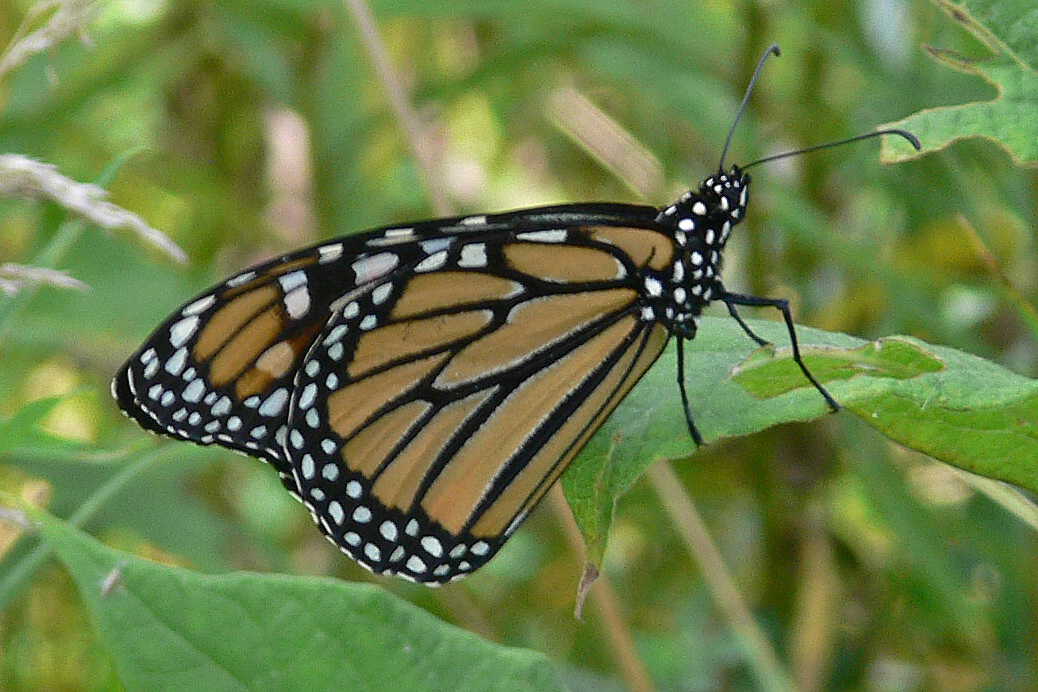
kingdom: Animalia
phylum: Arthropoda
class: Insecta
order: Lepidoptera
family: Nymphalidae
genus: Danaus
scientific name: Danaus plexippus
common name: Monarch
